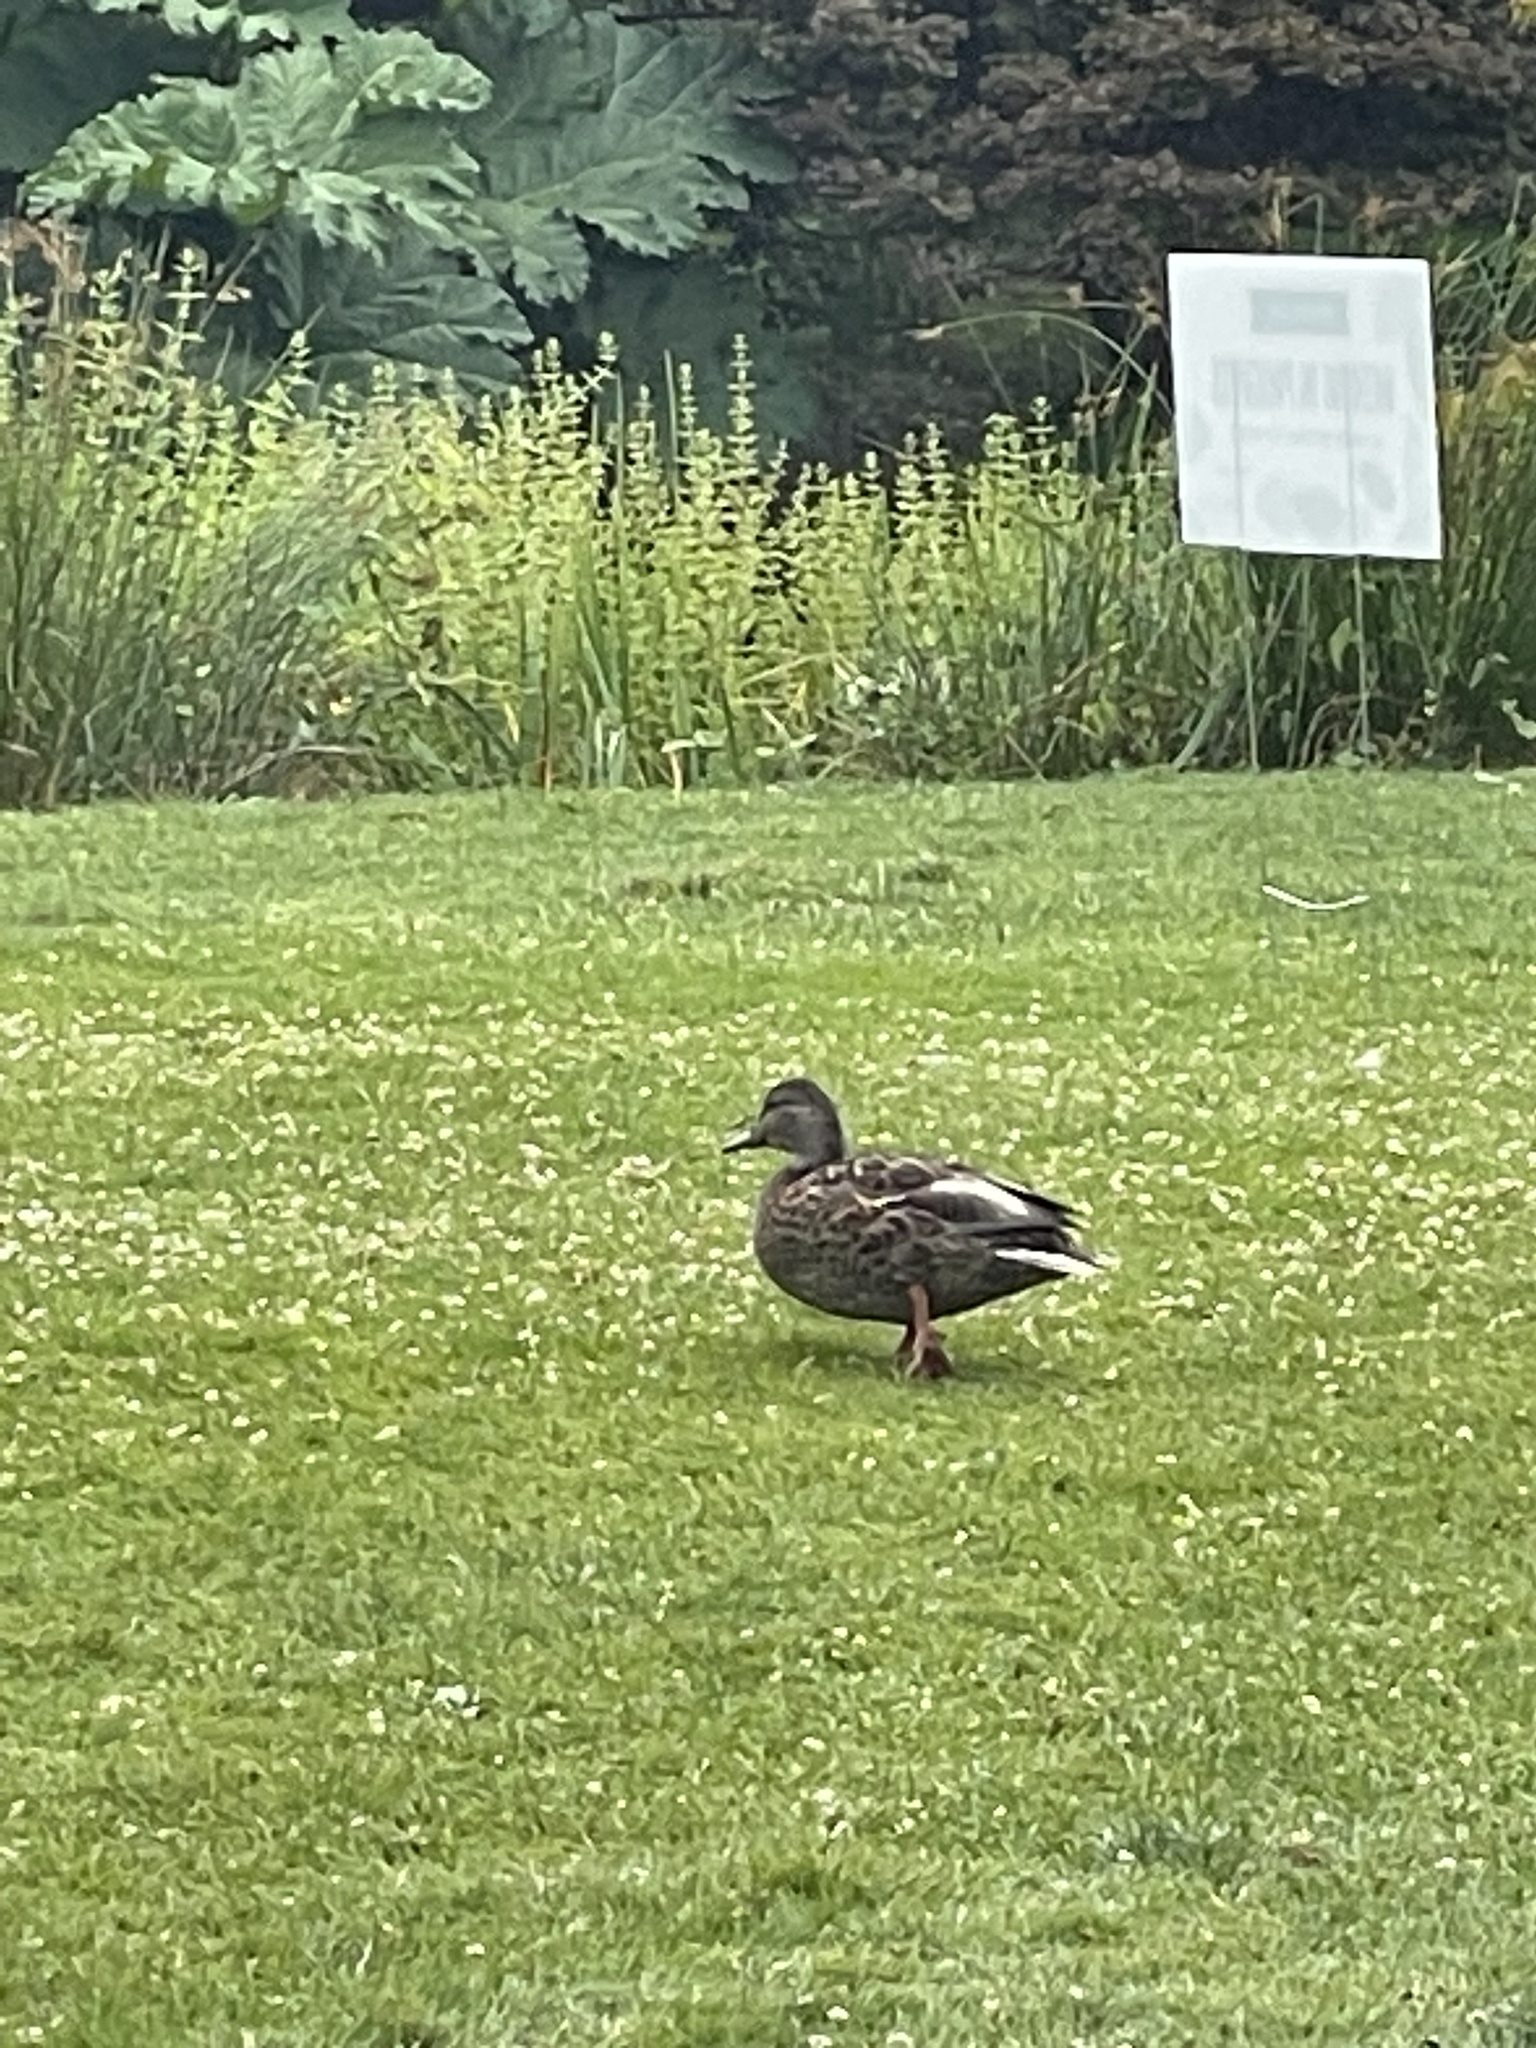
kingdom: Animalia
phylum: Chordata
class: Aves
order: Anseriformes
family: Anatidae
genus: Anas
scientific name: Anas platyrhynchos
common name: Mallard
